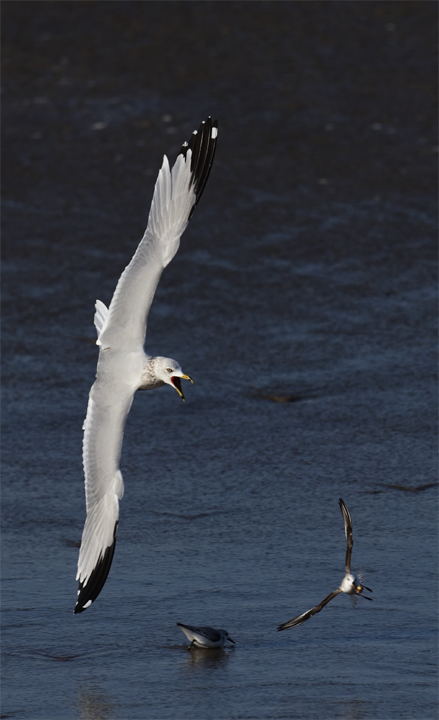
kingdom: Animalia
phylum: Chordata
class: Aves
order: Charadriiformes
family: Laridae
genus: Larus
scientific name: Larus delawarensis
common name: Ring-billed gull
